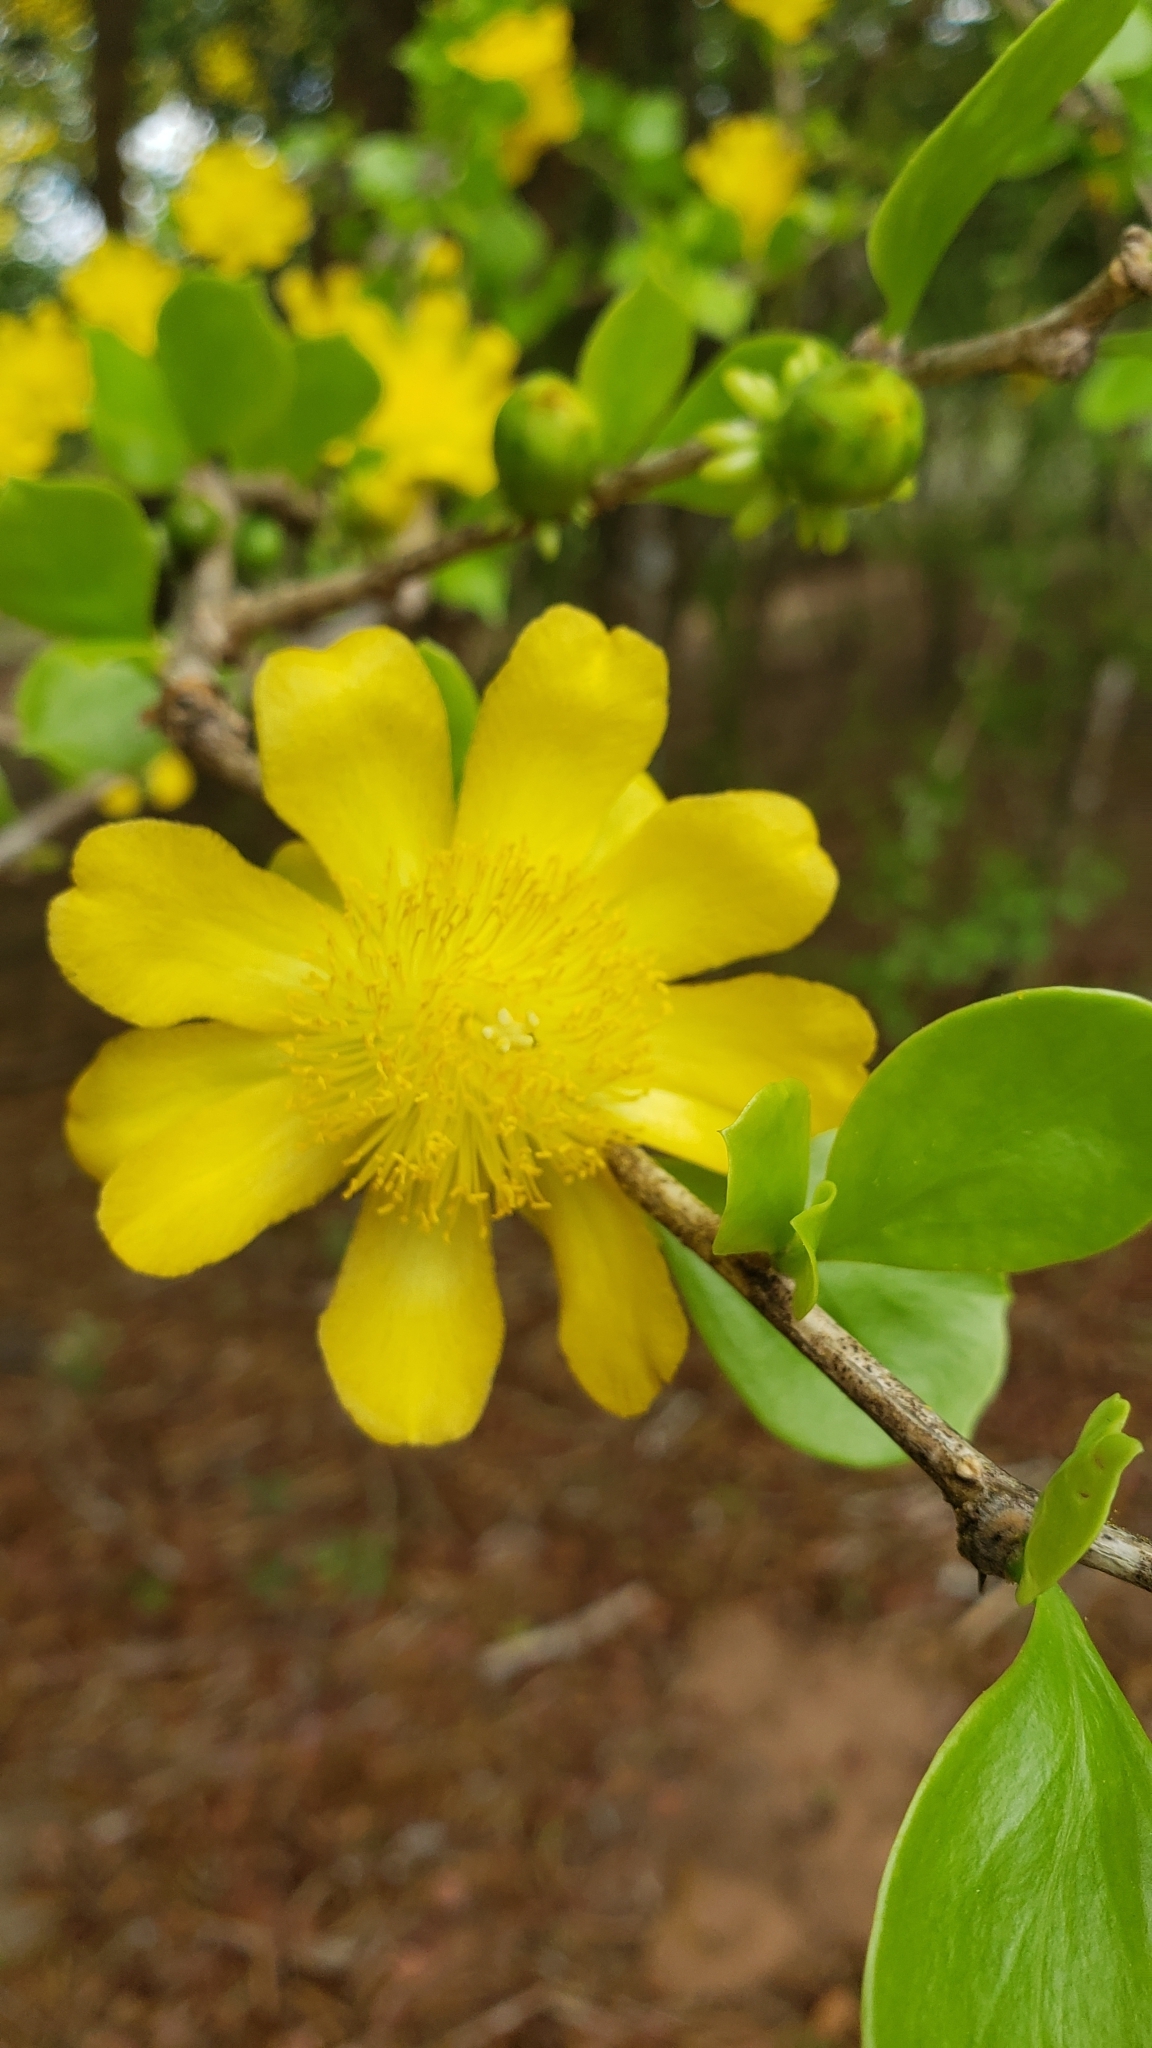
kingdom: Plantae
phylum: Tracheophyta
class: Magnoliopsida
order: Caryophyllales
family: Cactaceae
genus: Leuenbergeria
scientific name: Leuenbergeria guamacho
